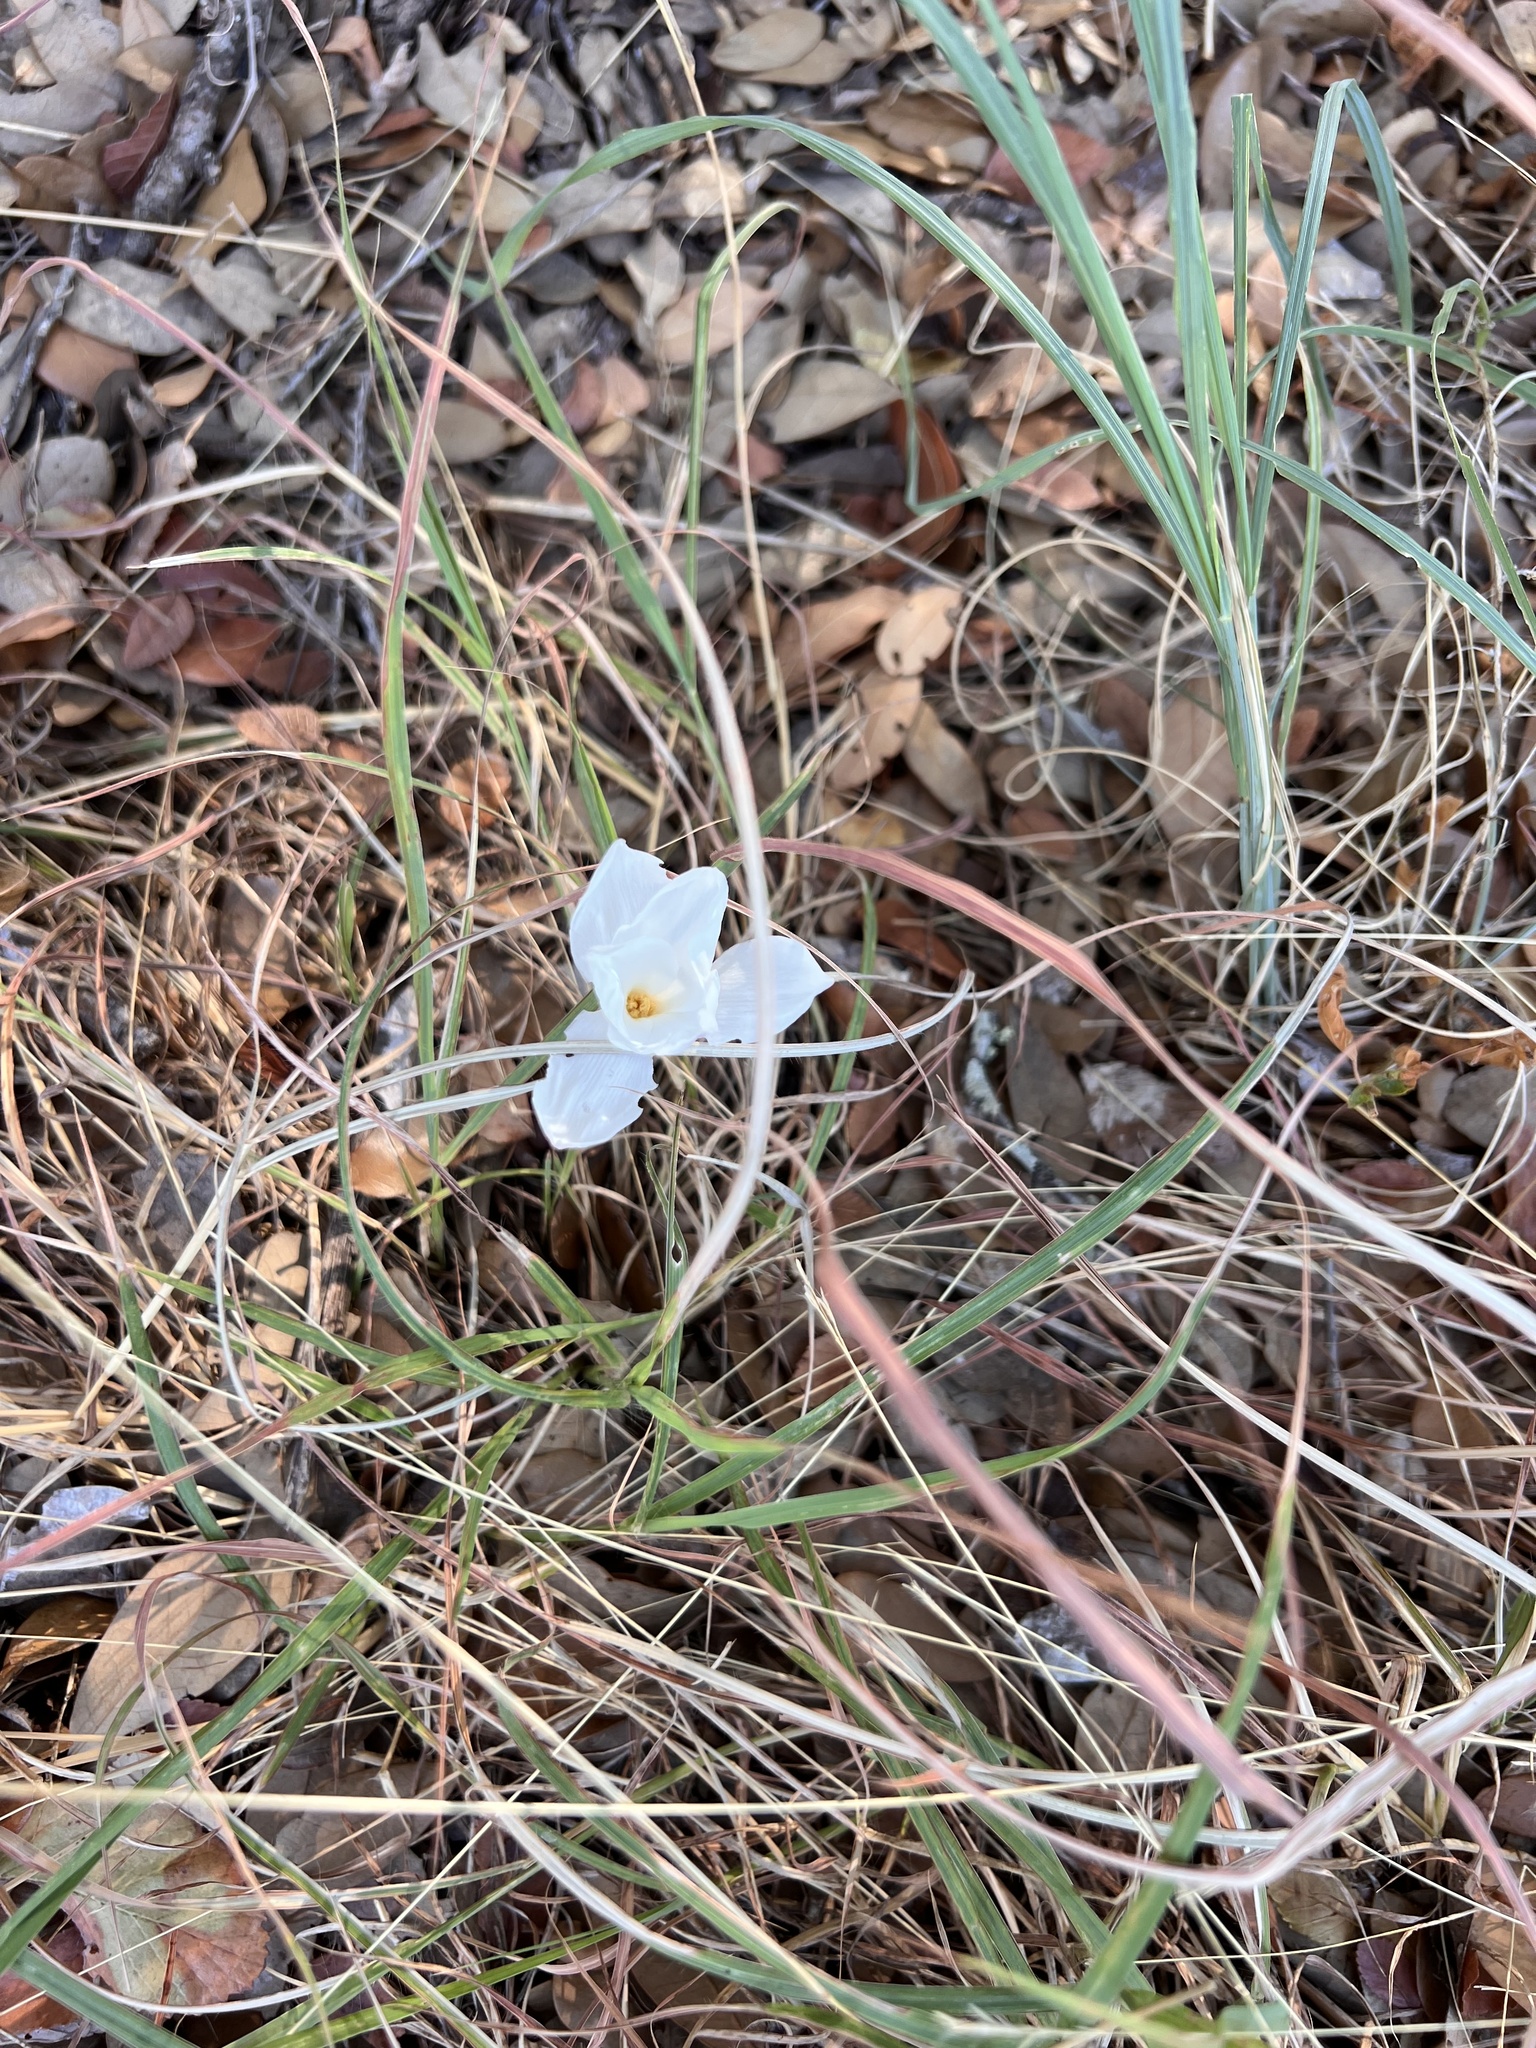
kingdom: Plantae
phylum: Tracheophyta
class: Liliopsida
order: Asparagales
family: Amaryllidaceae
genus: Zephyranthes
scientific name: Zephyranthes drummondii
